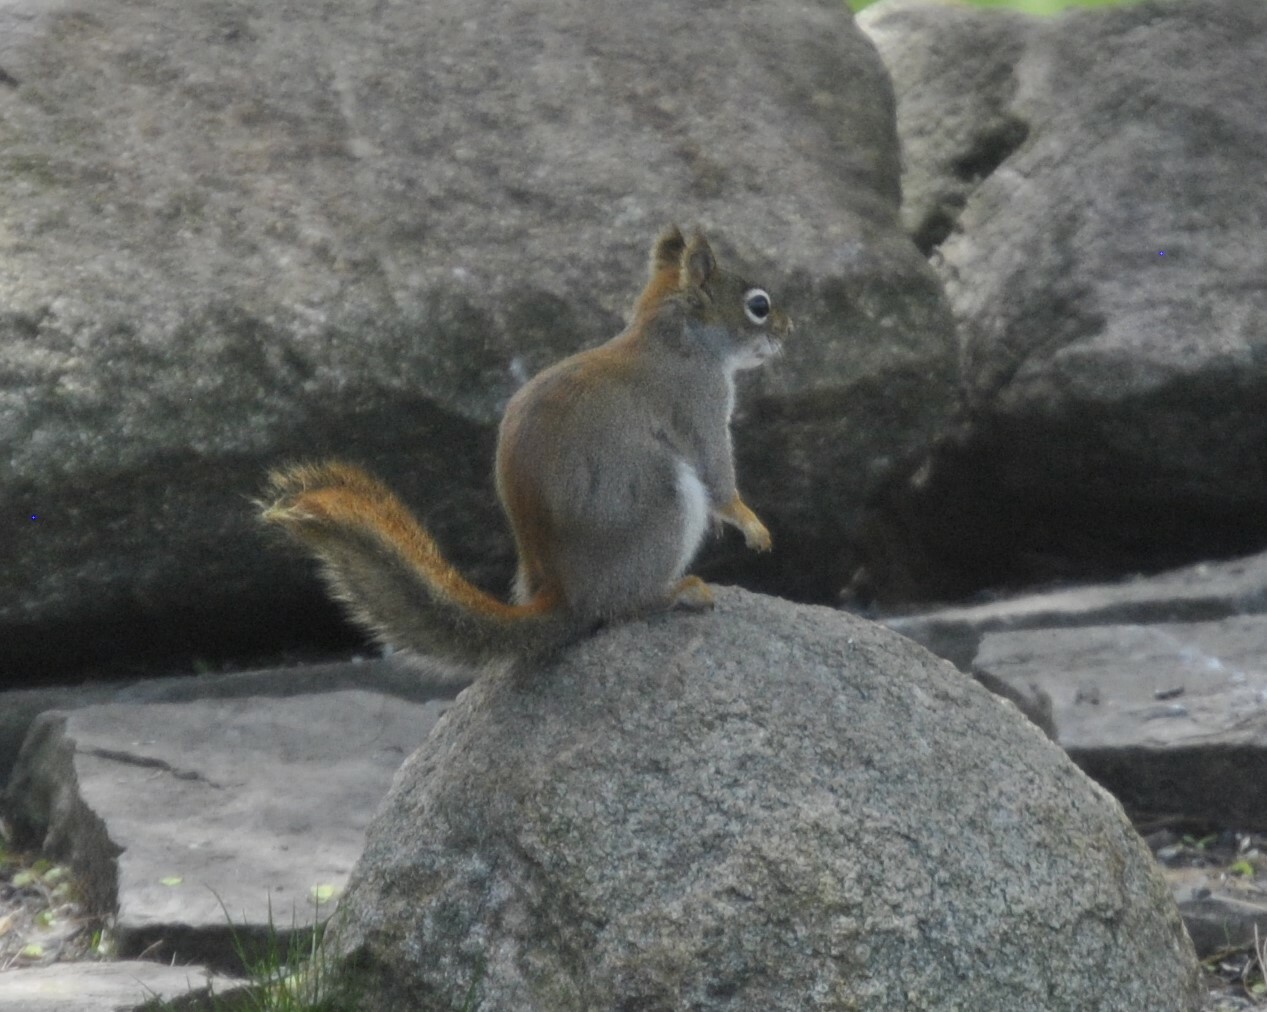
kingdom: Animalia
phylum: Chordata
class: Mammalia
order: Rodentia
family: Sciuridae
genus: Tamiasciurus
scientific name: Tamiasciurus hudsonicus
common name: Red squirrel
